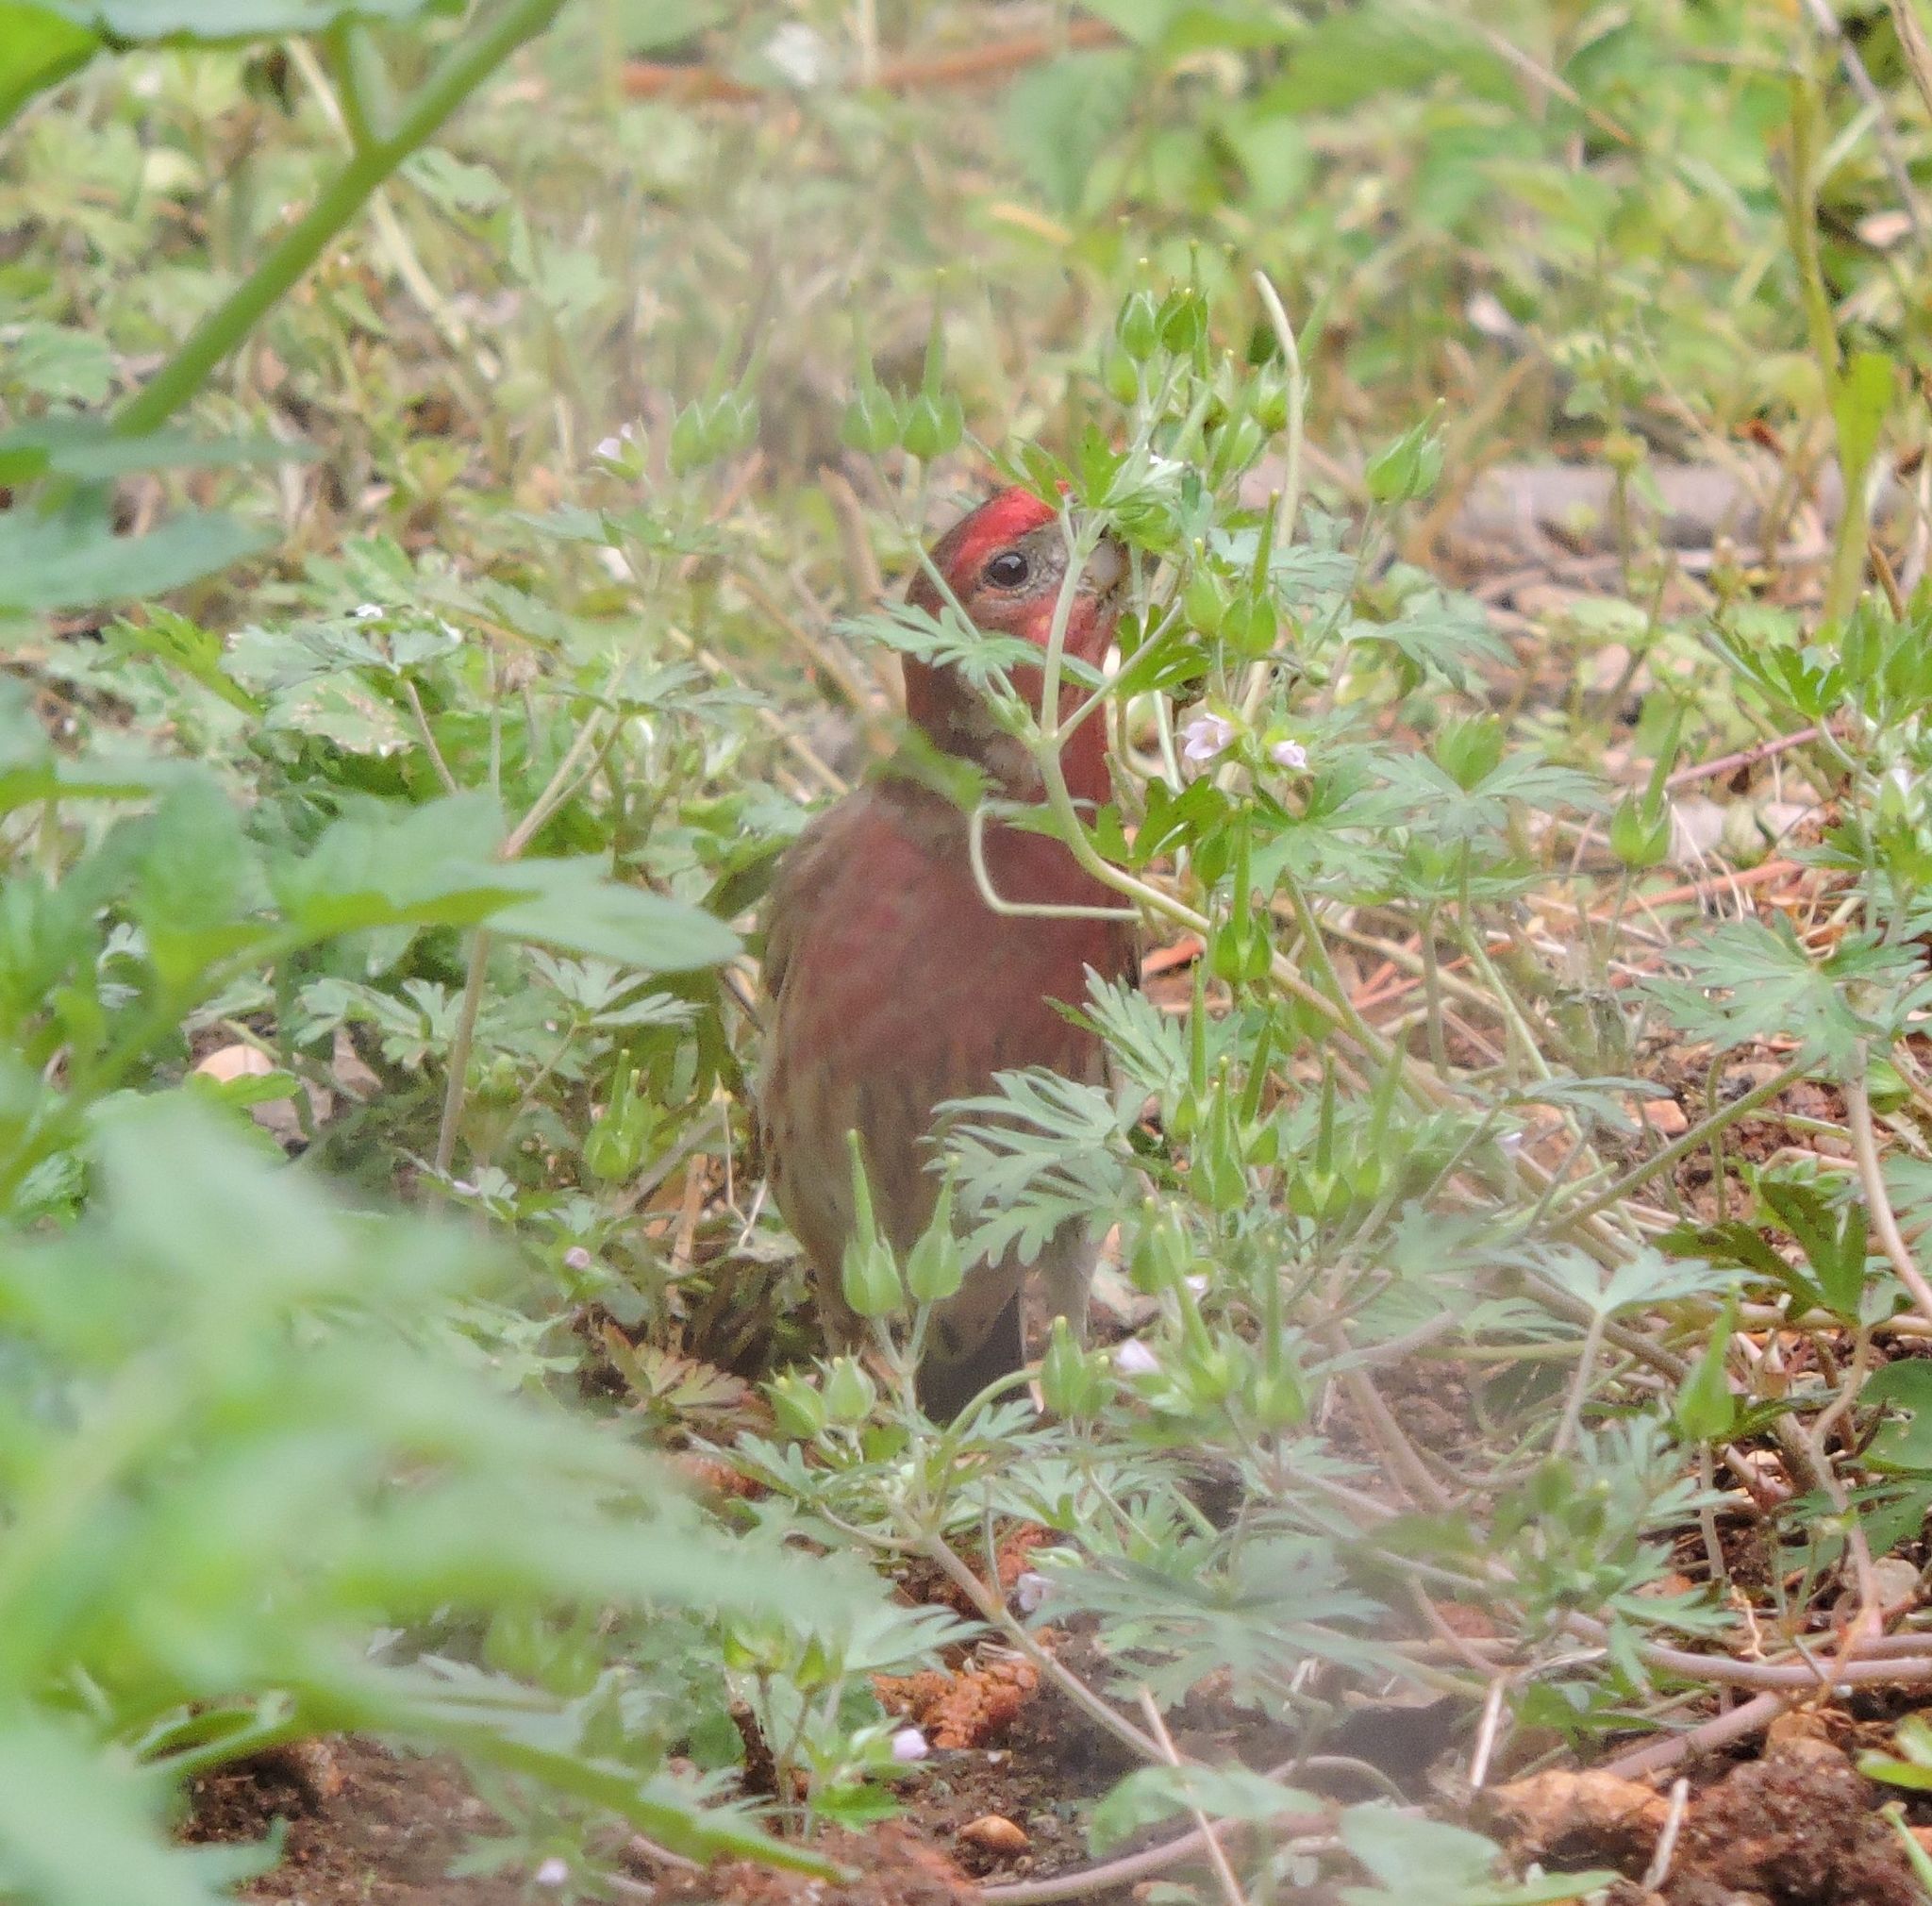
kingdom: Animalia
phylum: Chordata
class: Aves
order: Passeriformes
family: Fringillidae
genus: Haemorhous
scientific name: Haemorhous mexicanus
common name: House finch
